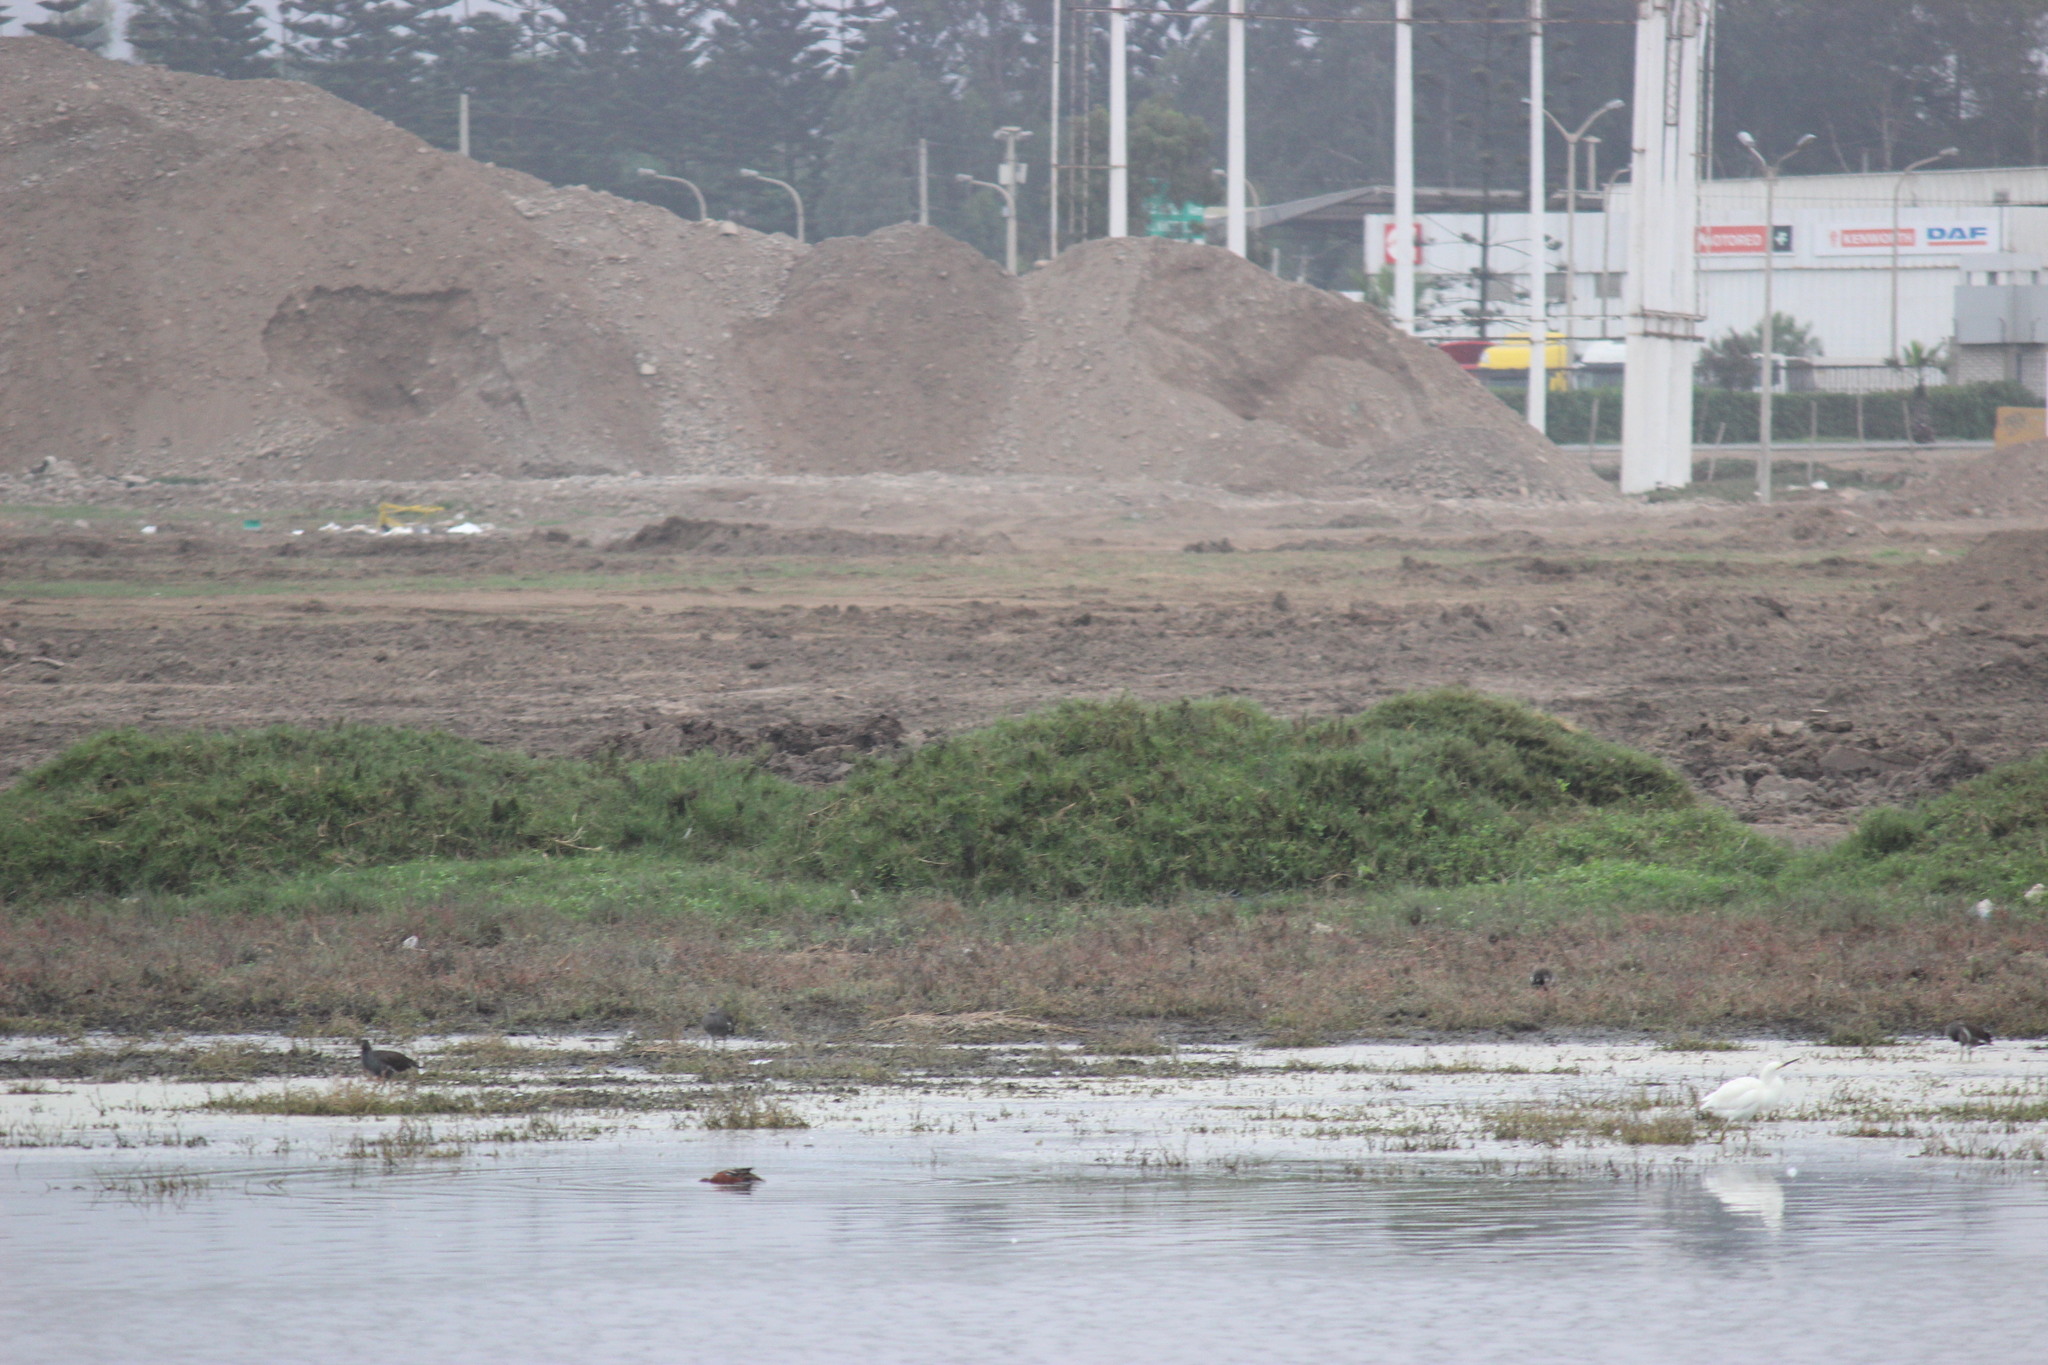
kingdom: Animalia
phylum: Chordata
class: Aves
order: Gruiformes
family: Rallidae
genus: Gallinula
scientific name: Gallinula chloropus
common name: Common moorhen
